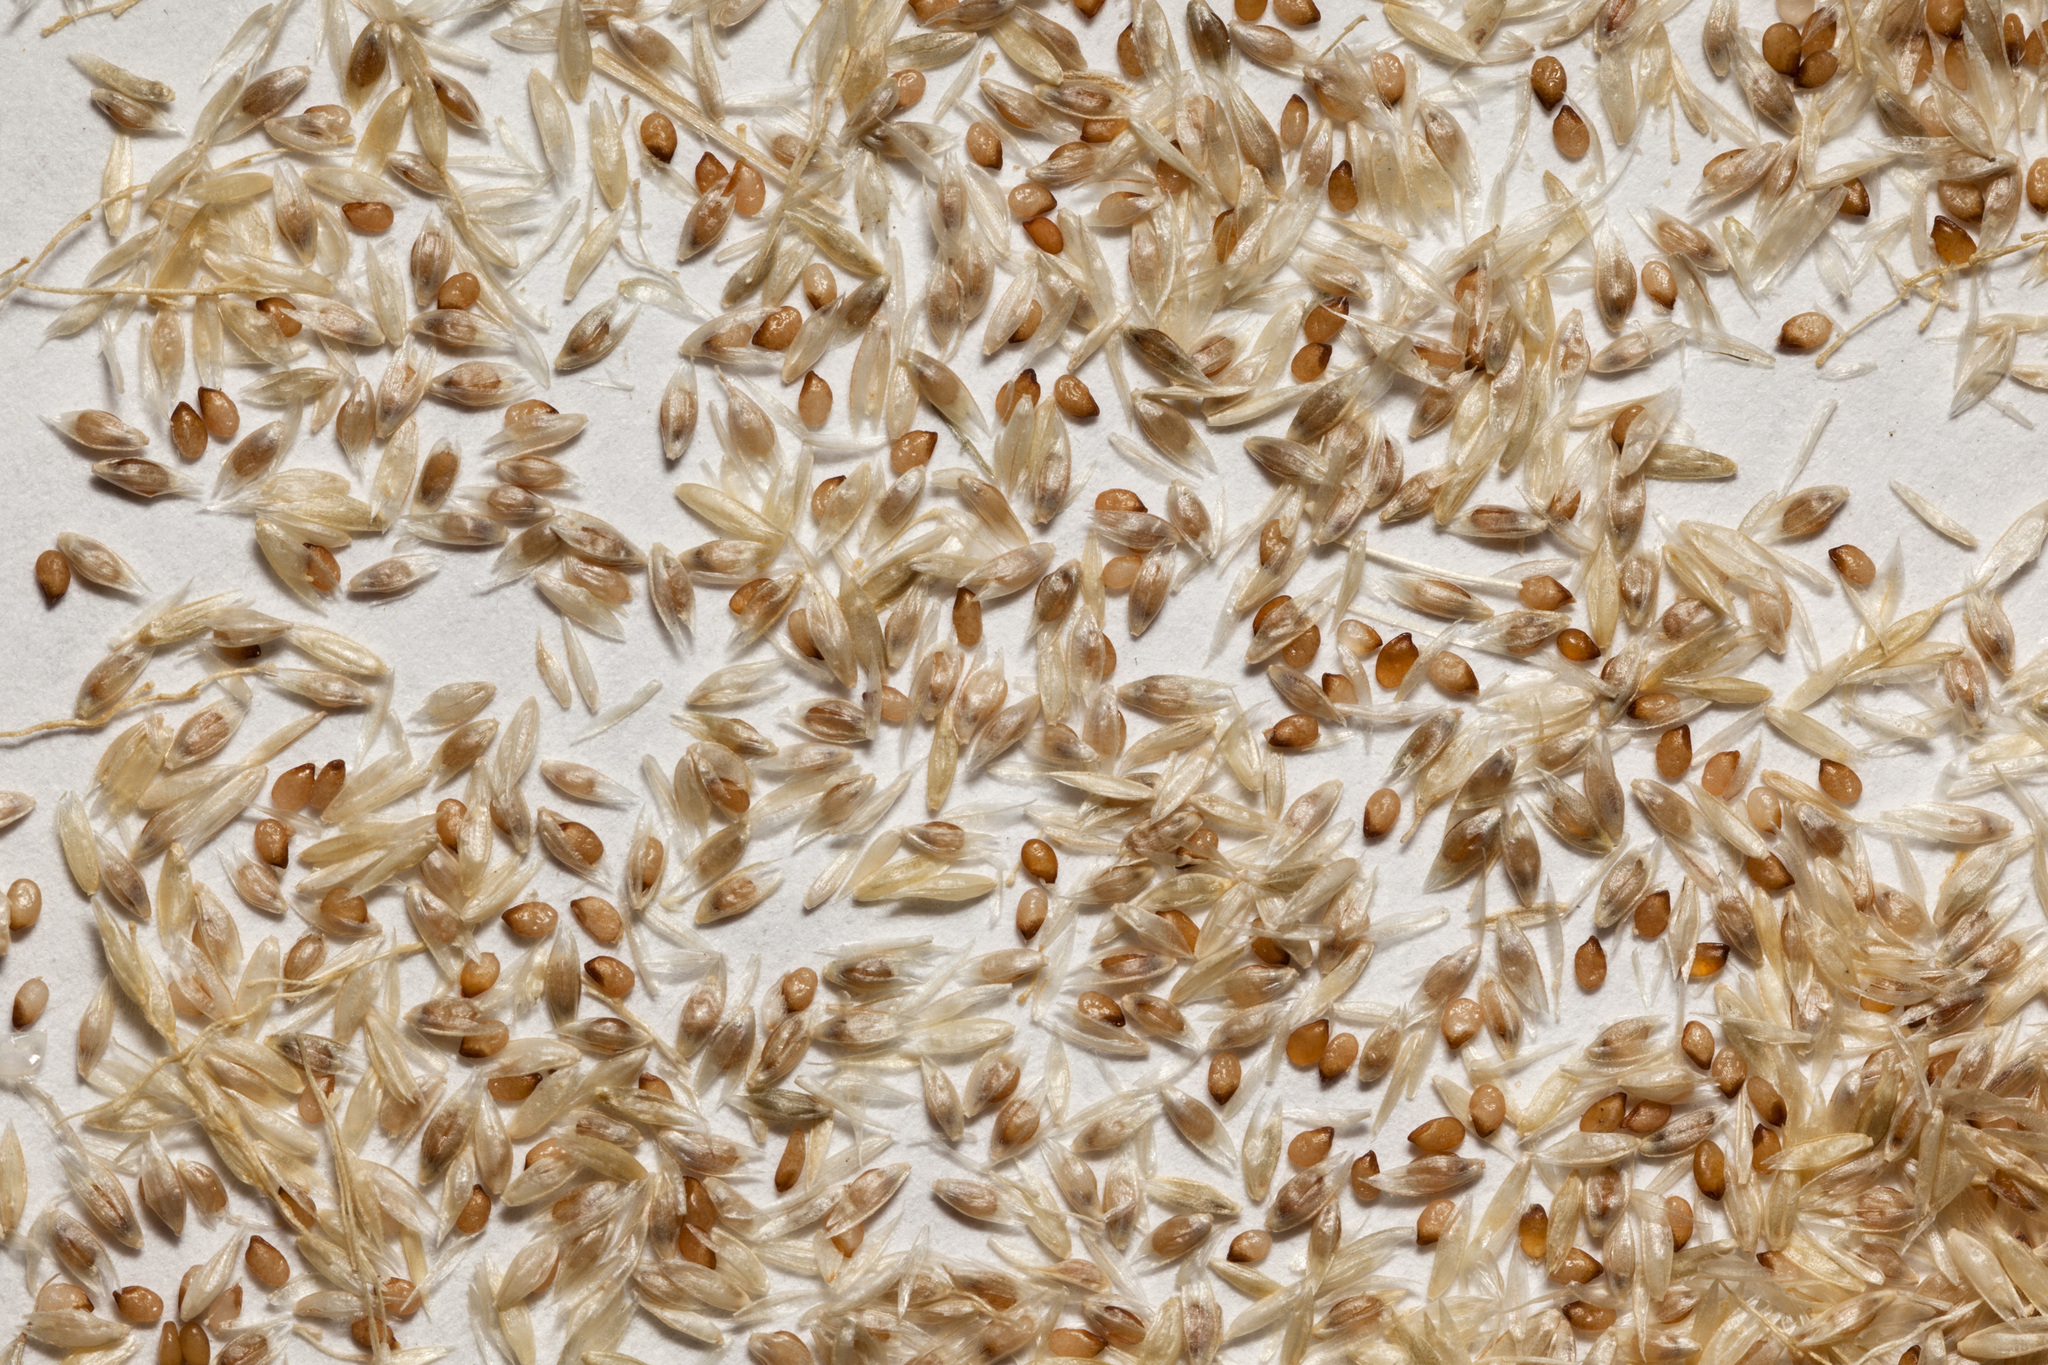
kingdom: Plantae
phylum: Tracheophyta
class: Liliopsida
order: Poales
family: Poaceae
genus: Sporobolus
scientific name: Sporobolus cryptandrus
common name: Sand dropseed
